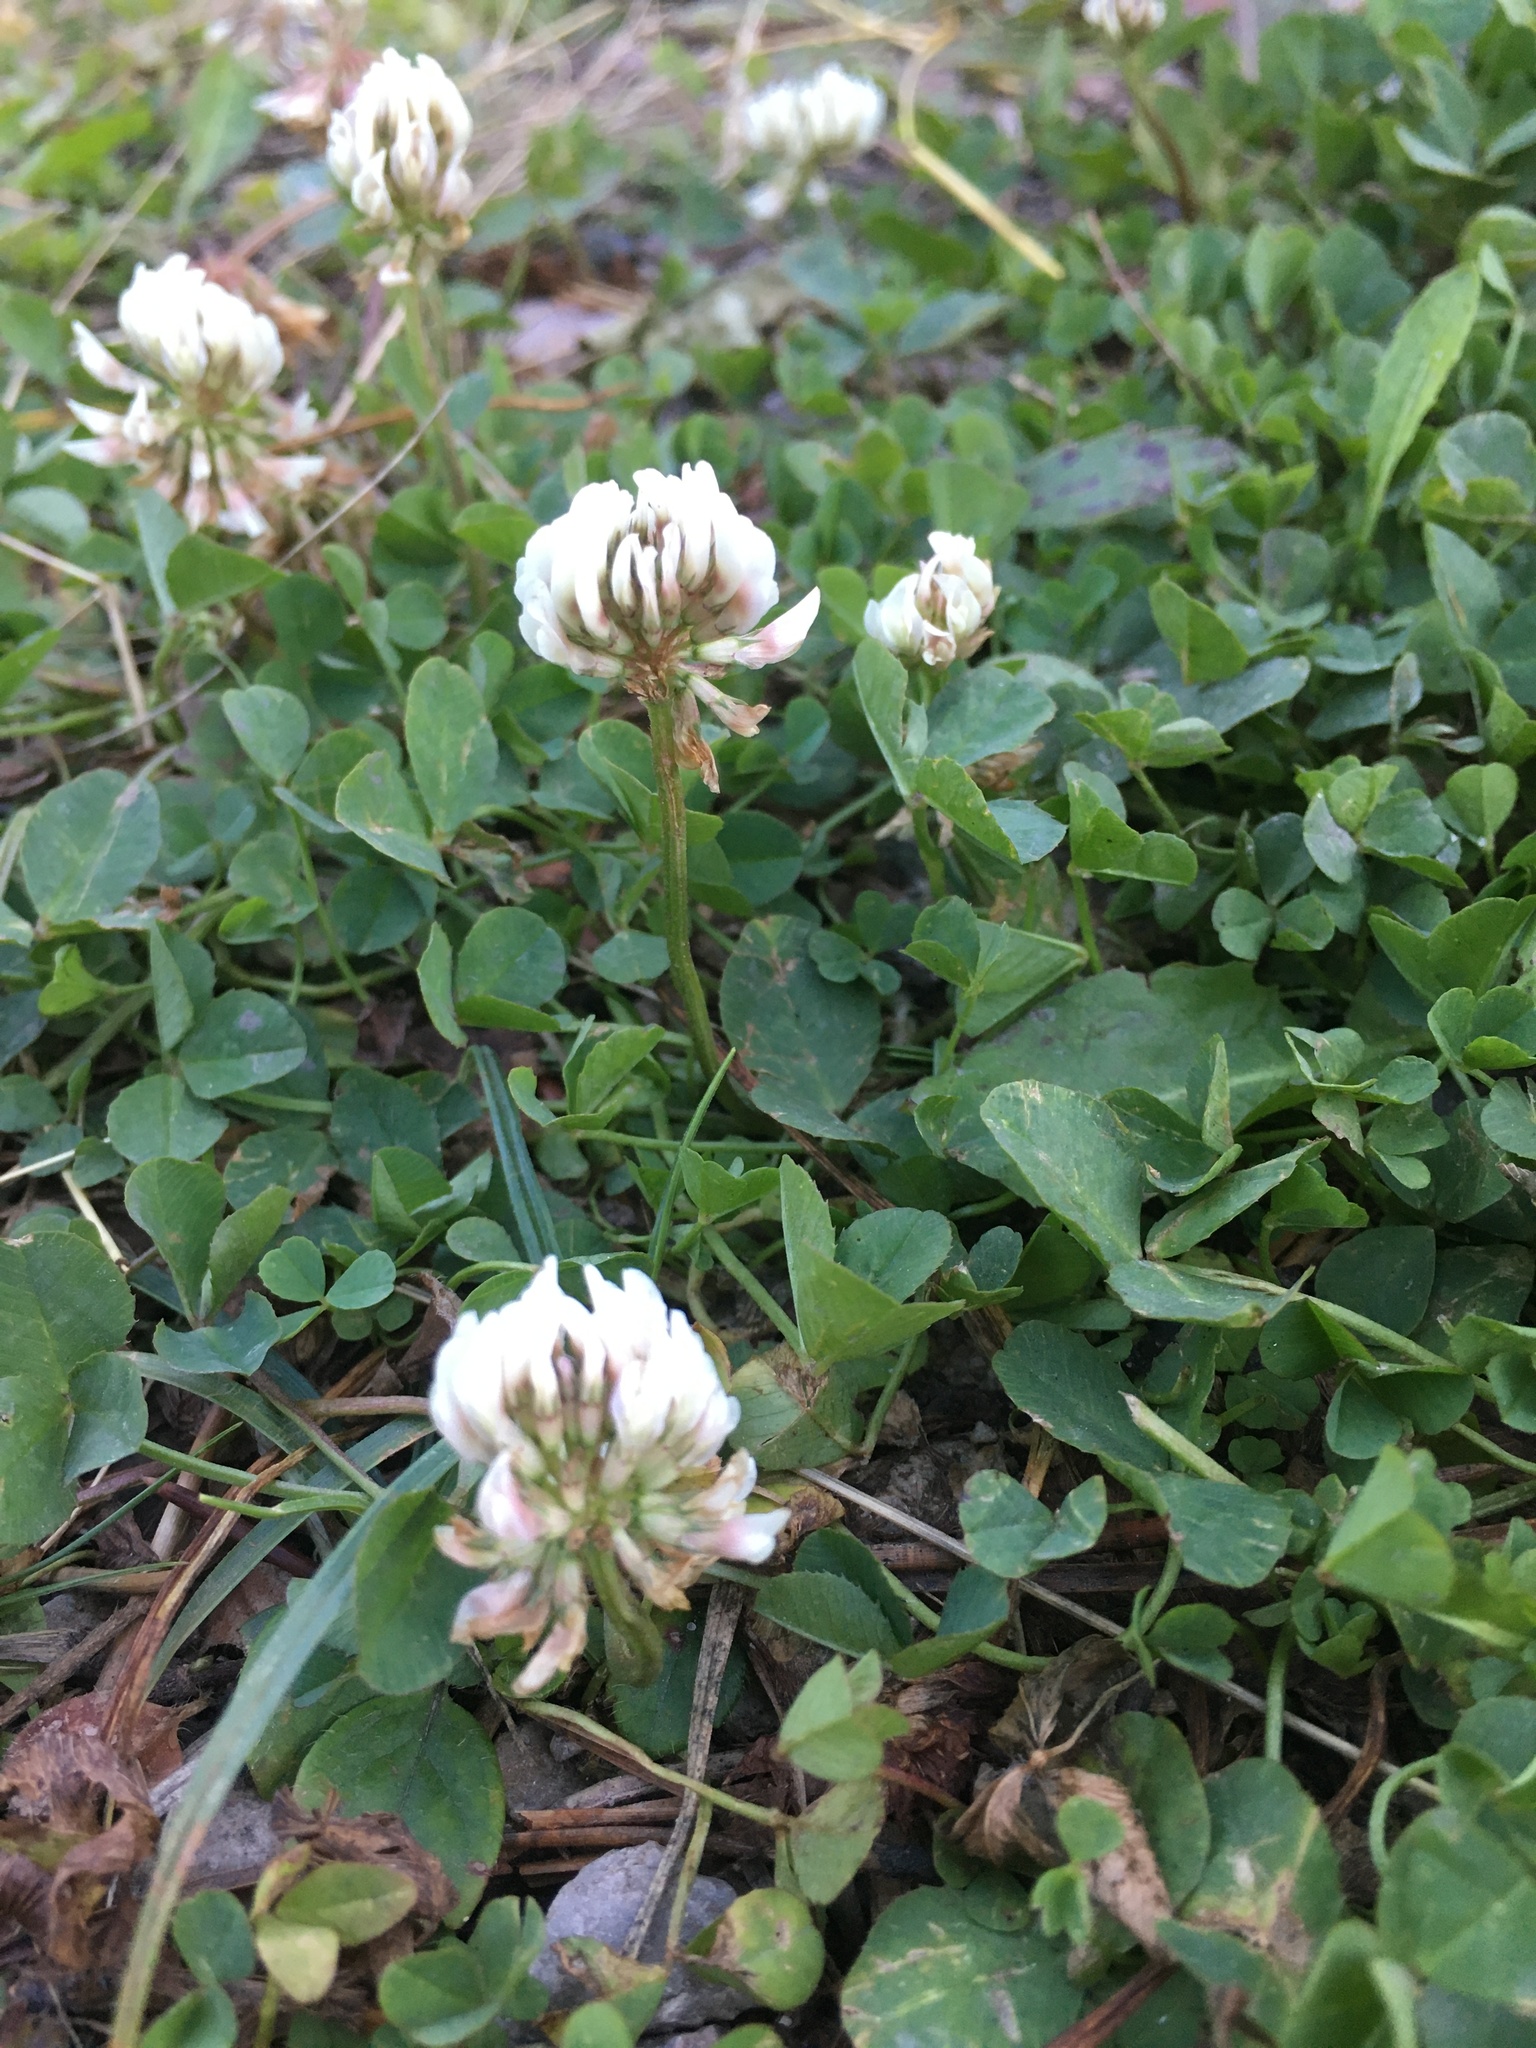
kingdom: Plantae
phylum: Tracheophyta
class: Magnoliopsida
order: Fabales
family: Fabaceae
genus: Trifolium
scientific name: Trifolium repens
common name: White clover
